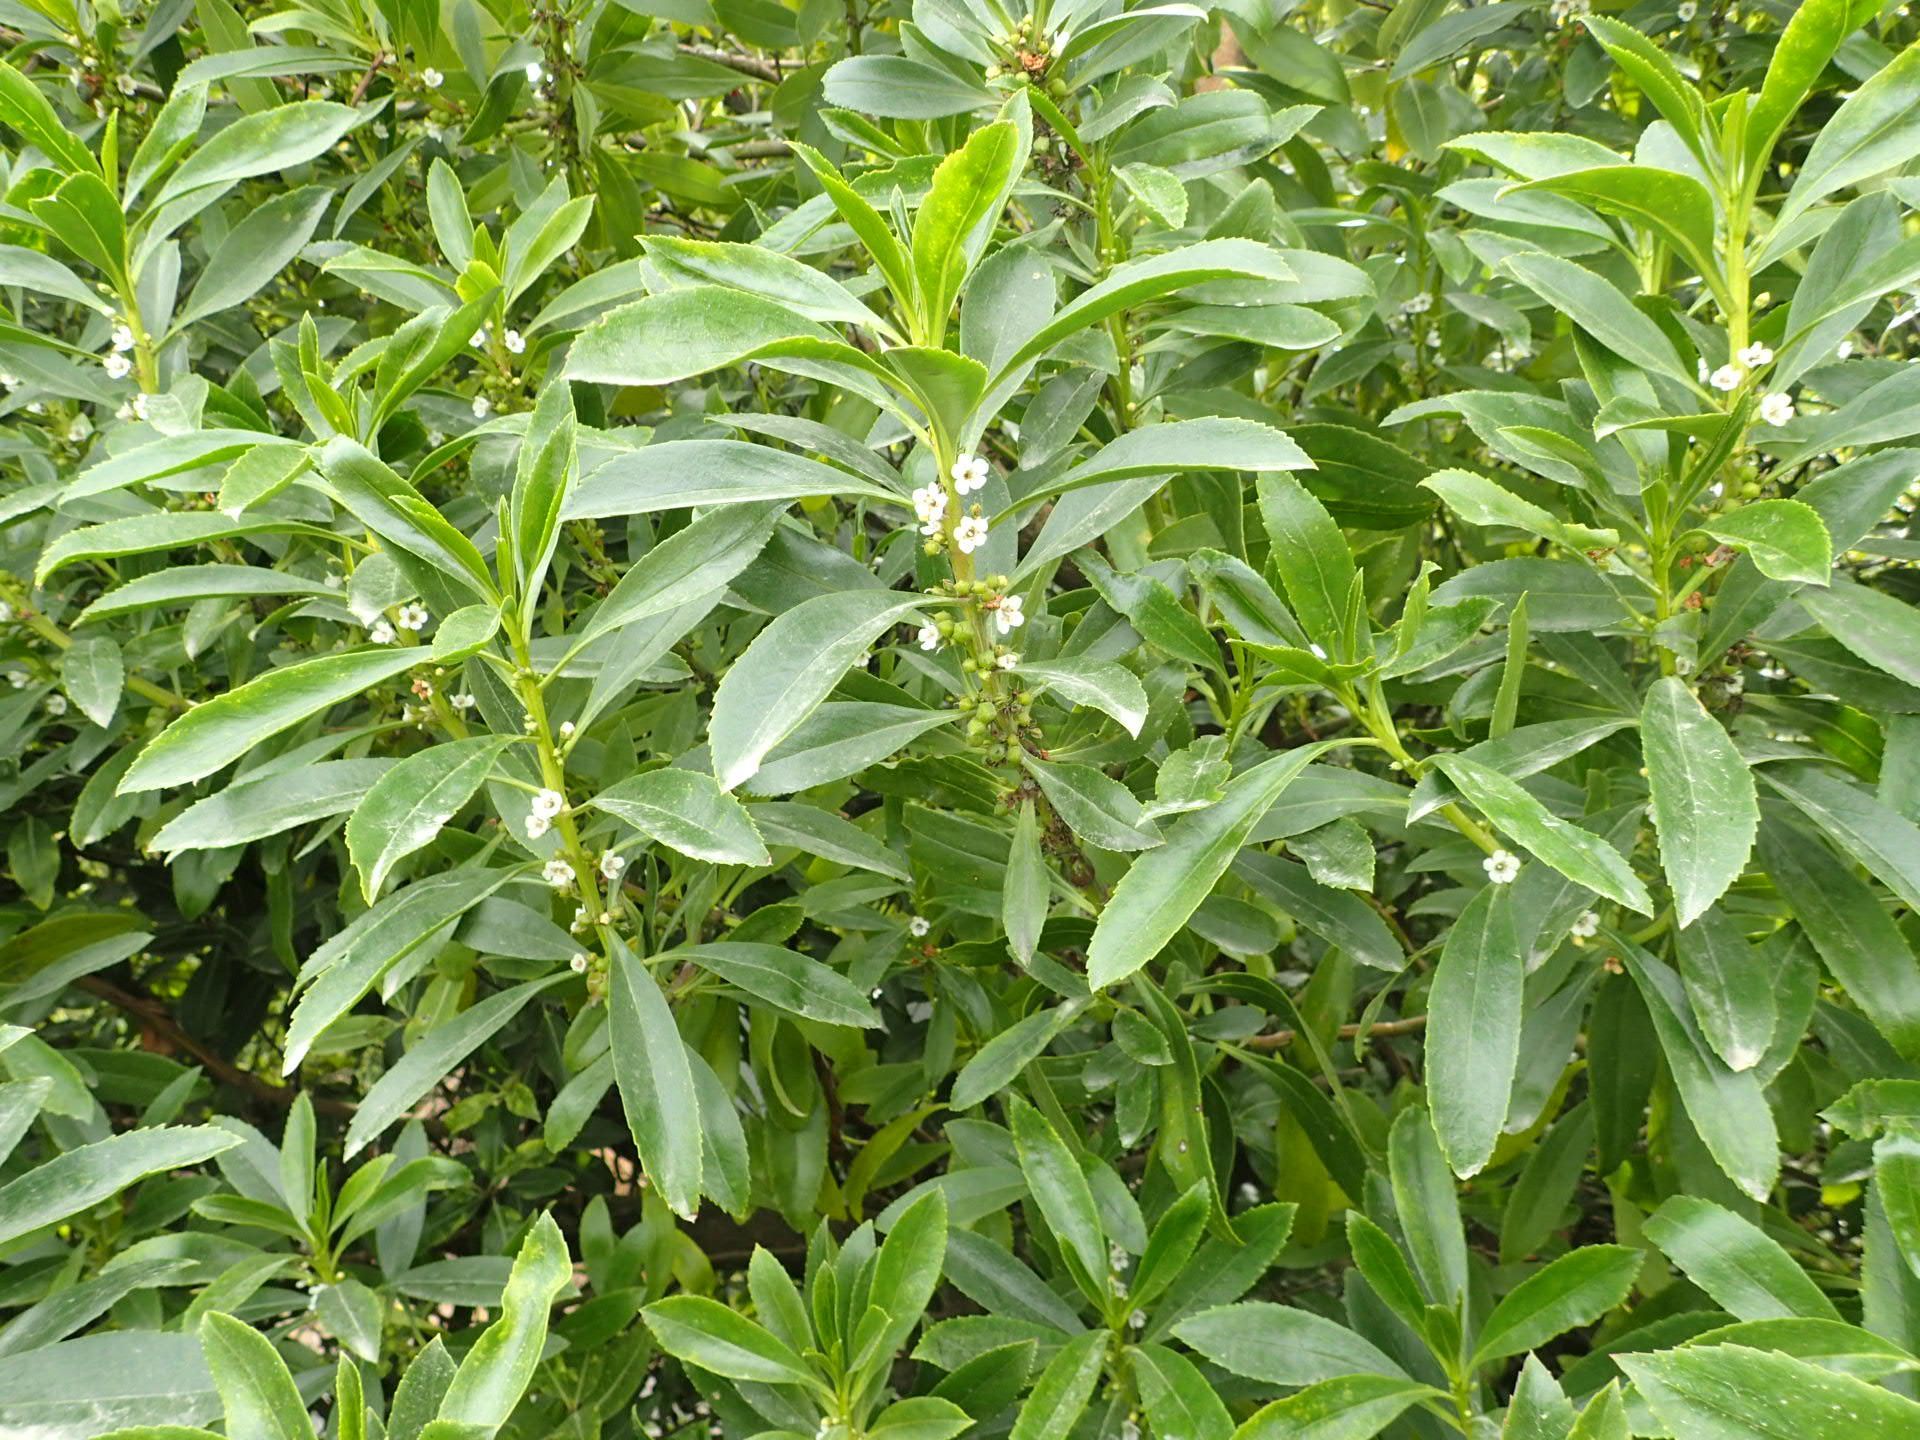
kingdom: Plantae
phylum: Tracheophyta
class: Magnoliopsida
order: Lamiales
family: Scrophulariaceae
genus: Myoporum
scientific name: Myoporum insulare
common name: Common boobialla
